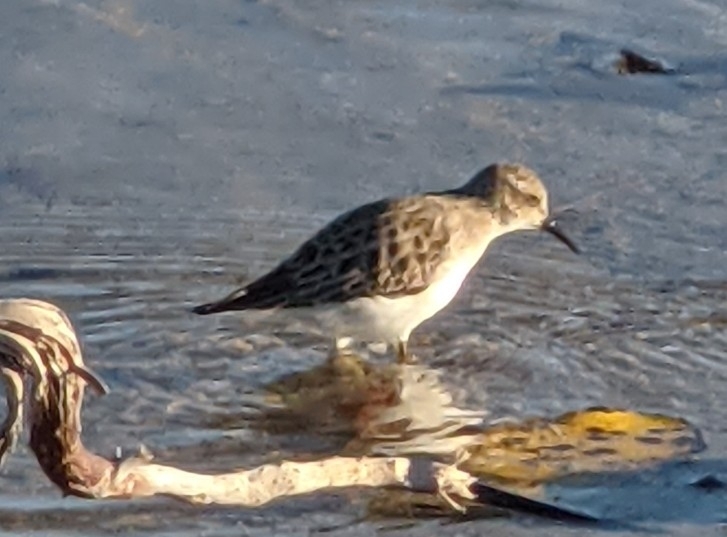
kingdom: Animalia
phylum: Chordata
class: Aves
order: Charadriiformes
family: Scolopacidae
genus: Calidris
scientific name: Calidris minutilla
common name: Least sandpiper
